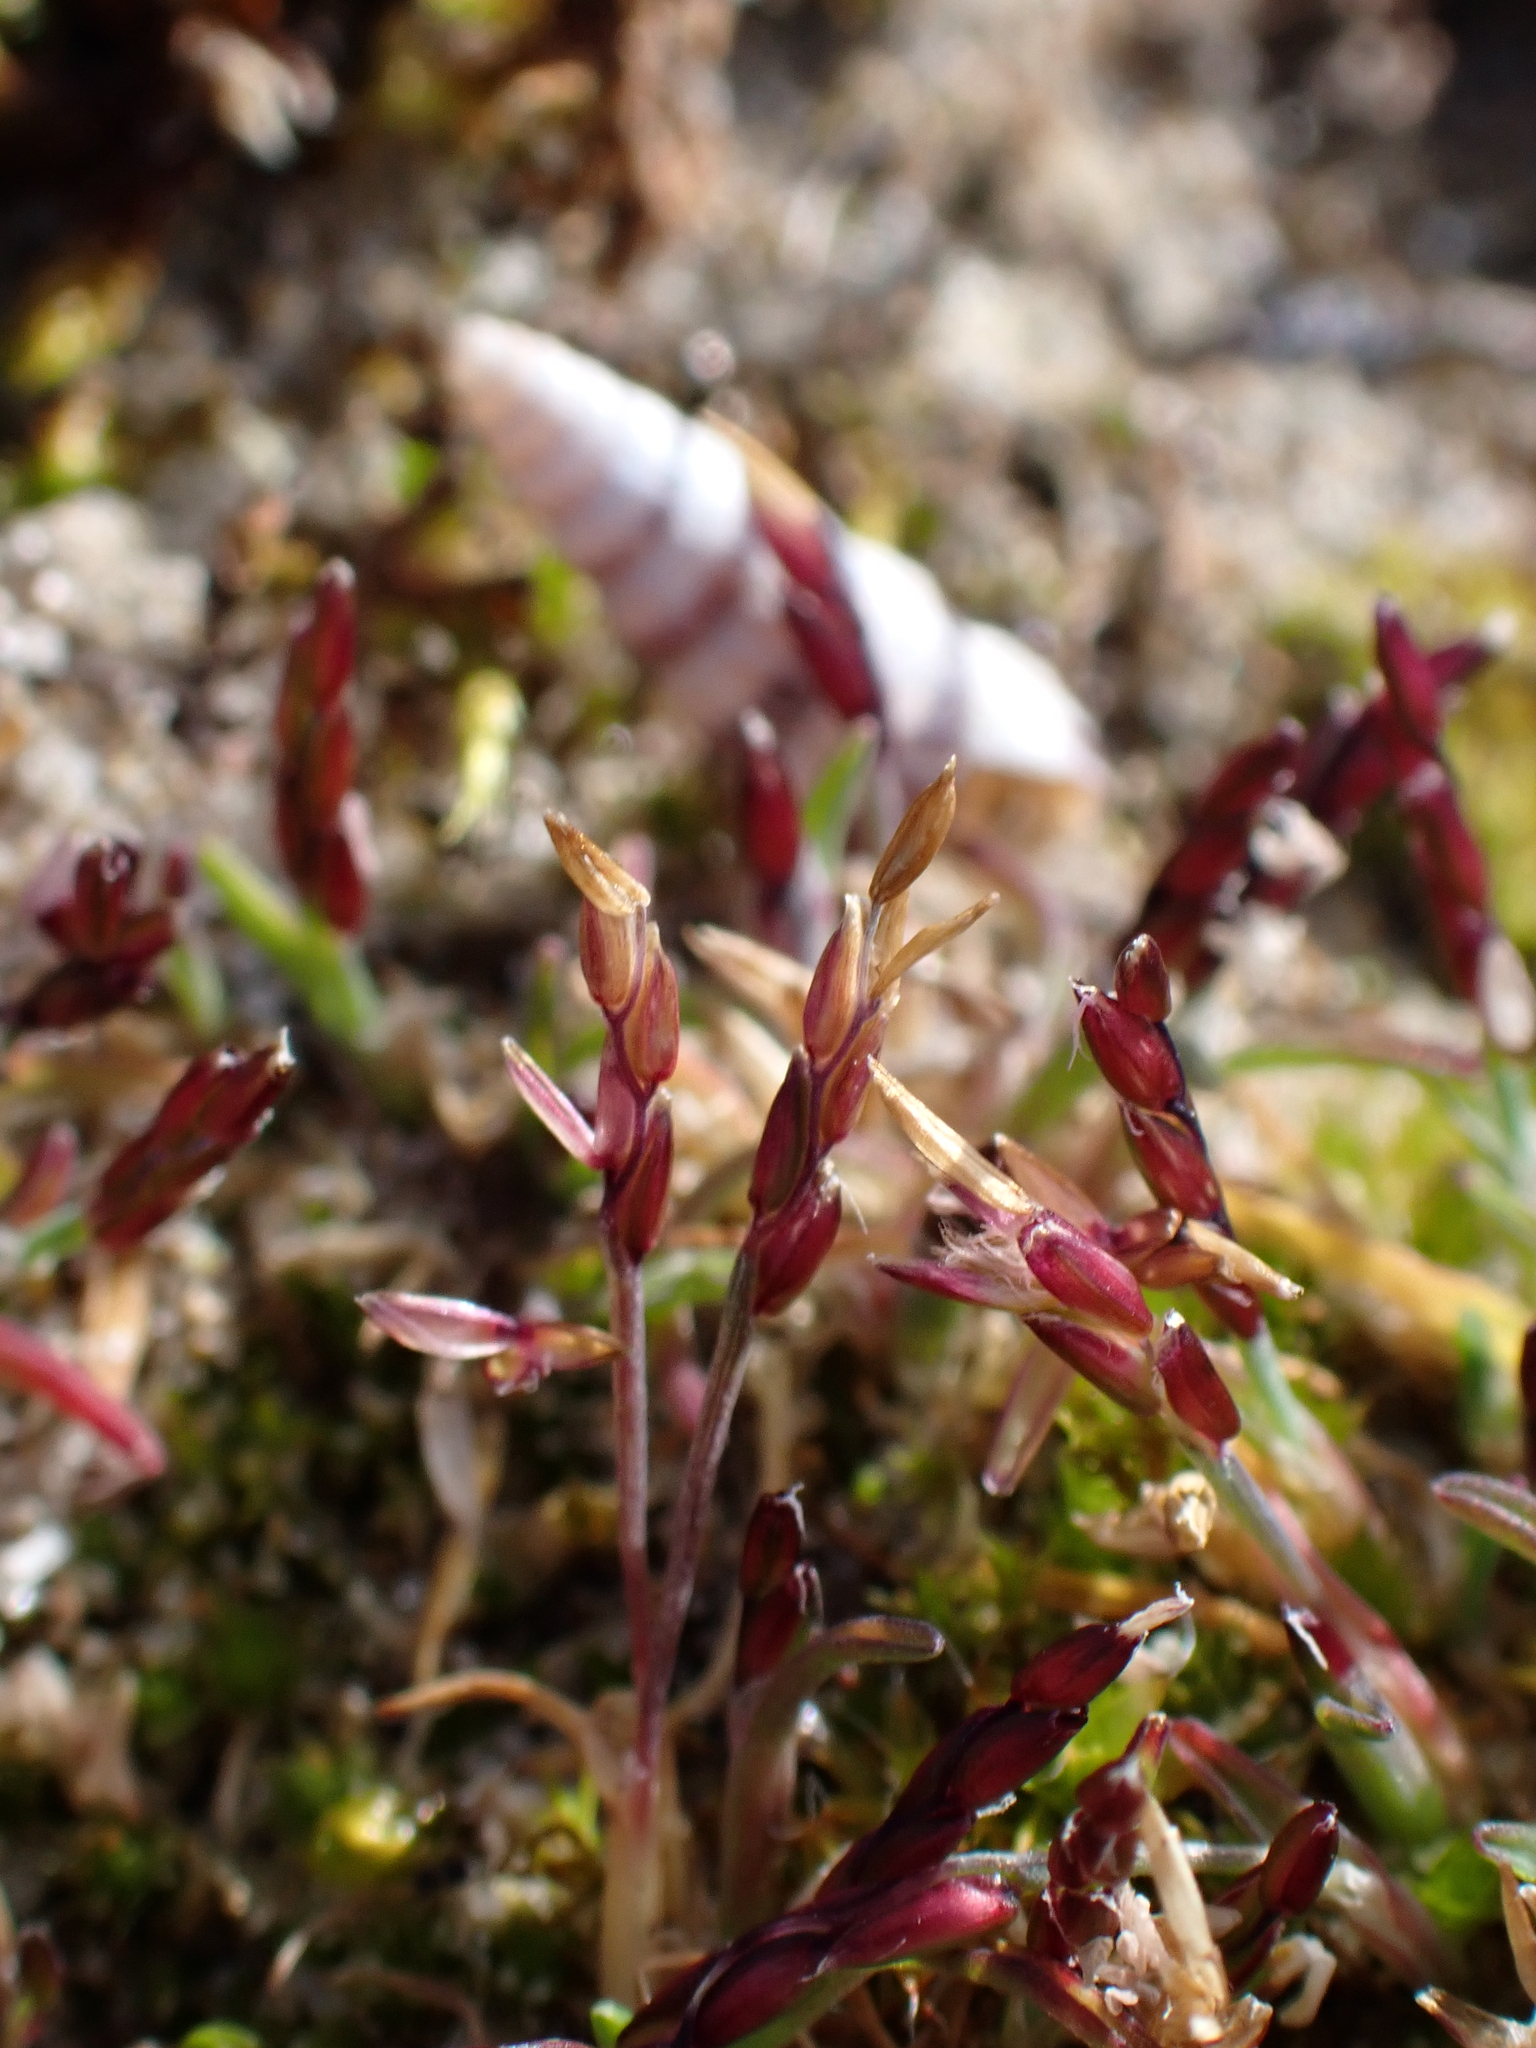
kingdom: Plantae
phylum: Tracheophyta
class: Liliopsida
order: Poales
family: Poaceae
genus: Mibora
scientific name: Mibora minima
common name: Early sand-grass
